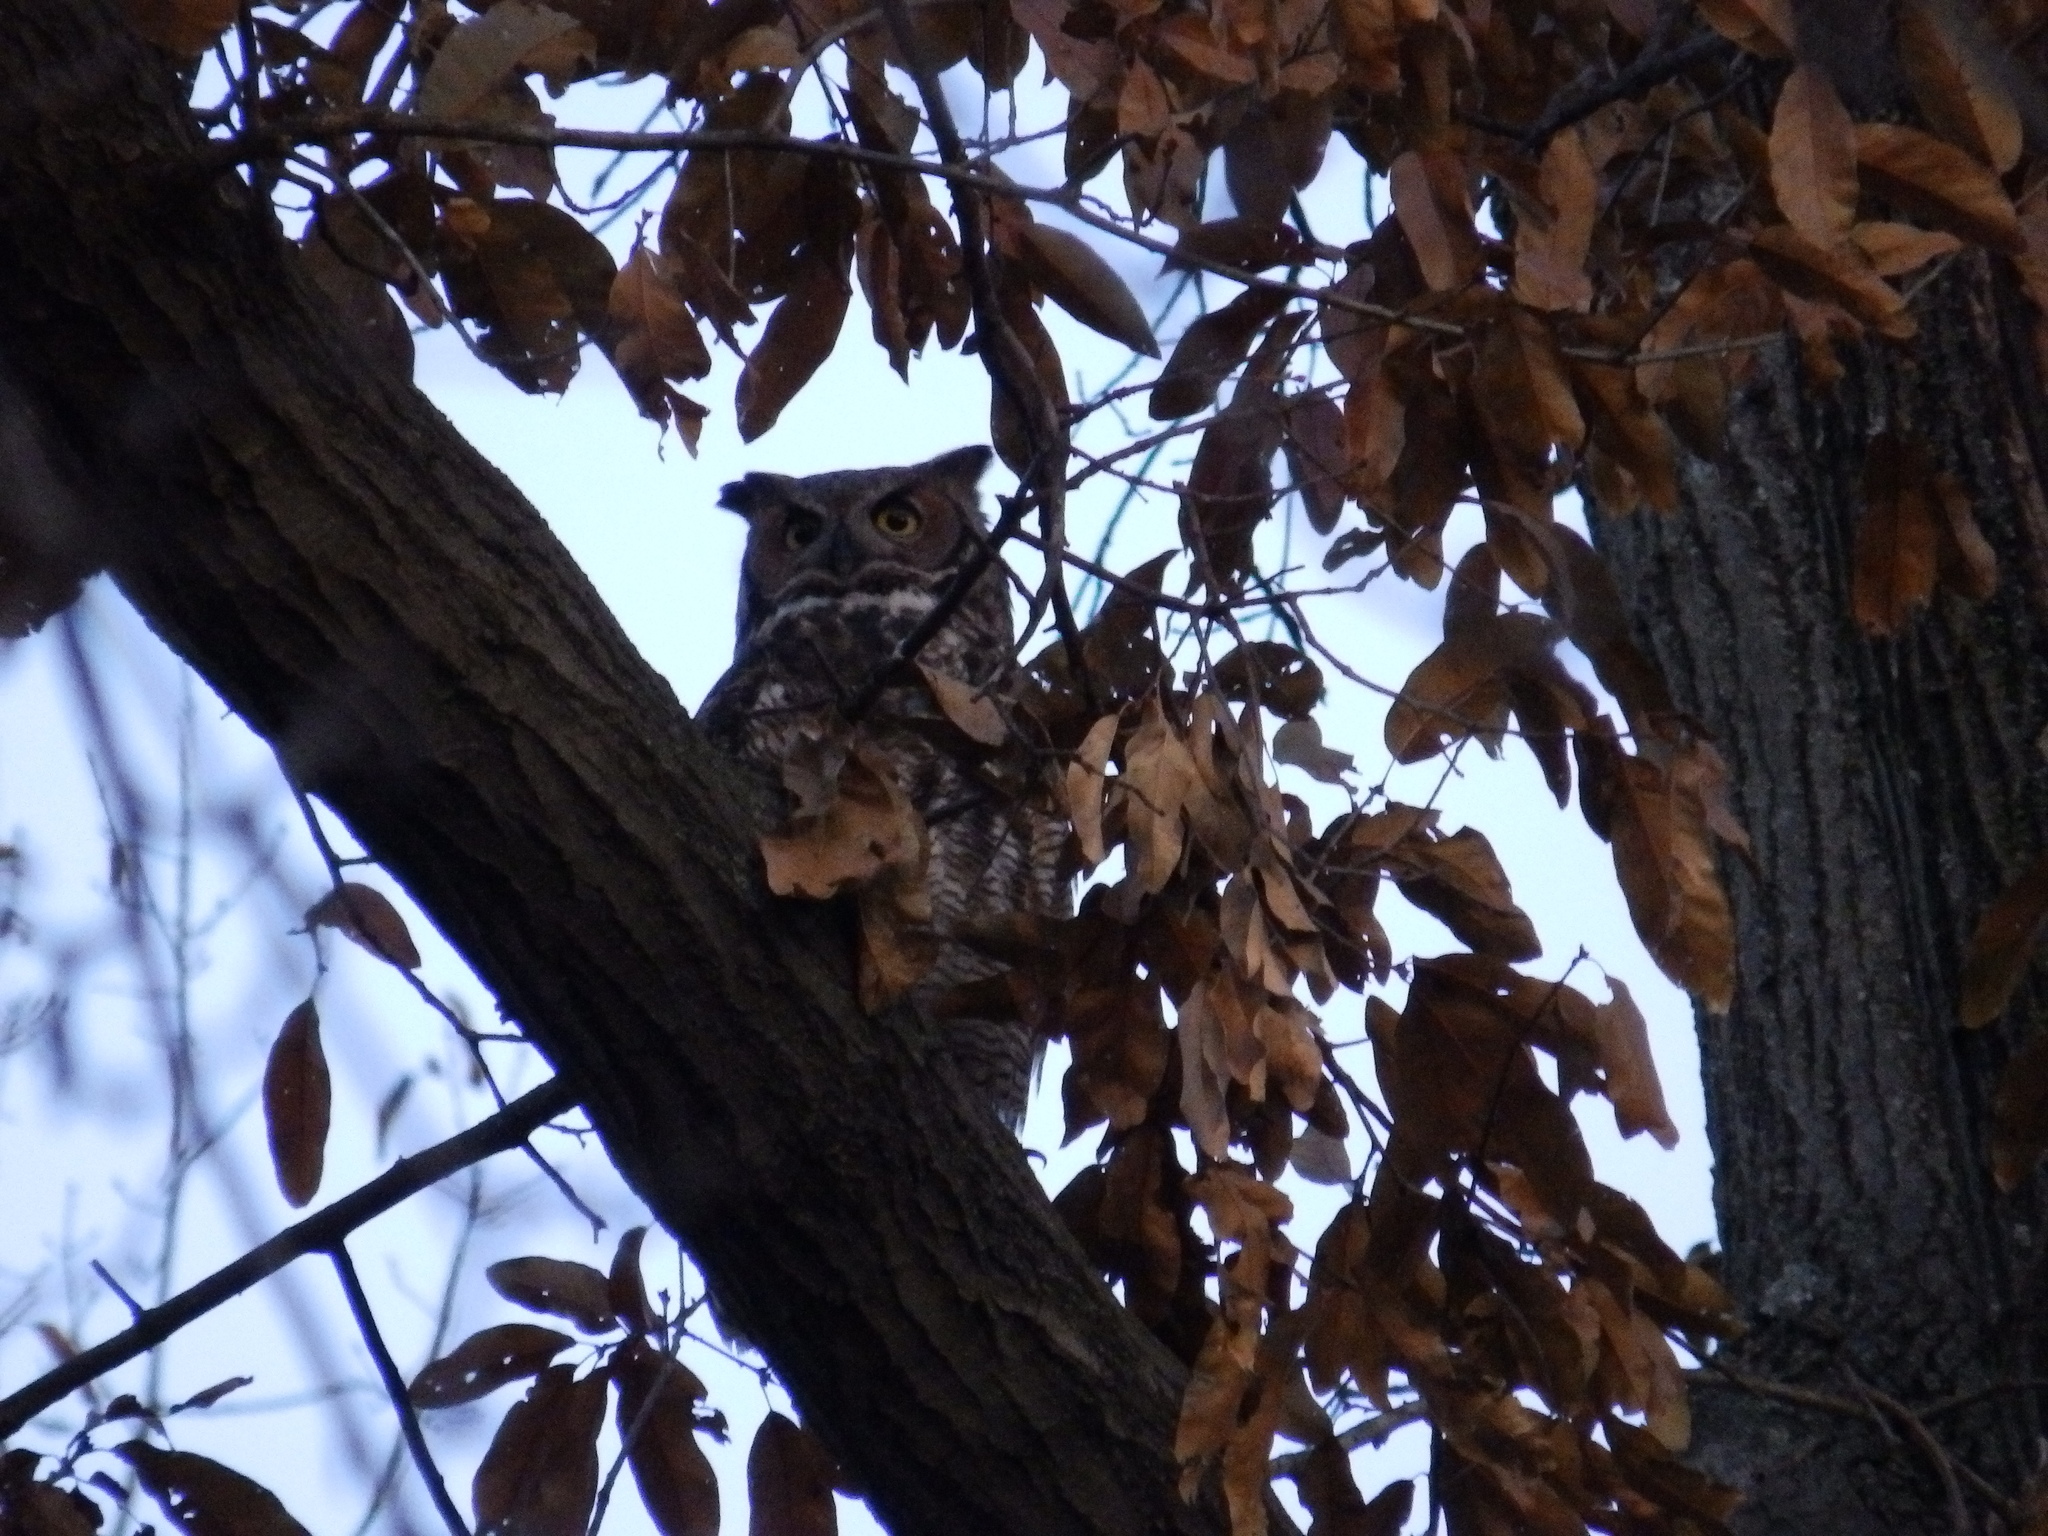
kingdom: Animalia
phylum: Chordata
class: Aves
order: Strigiformes
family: Strigidae
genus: Bubo
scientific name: Bubo virginianus
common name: Great horned owl
